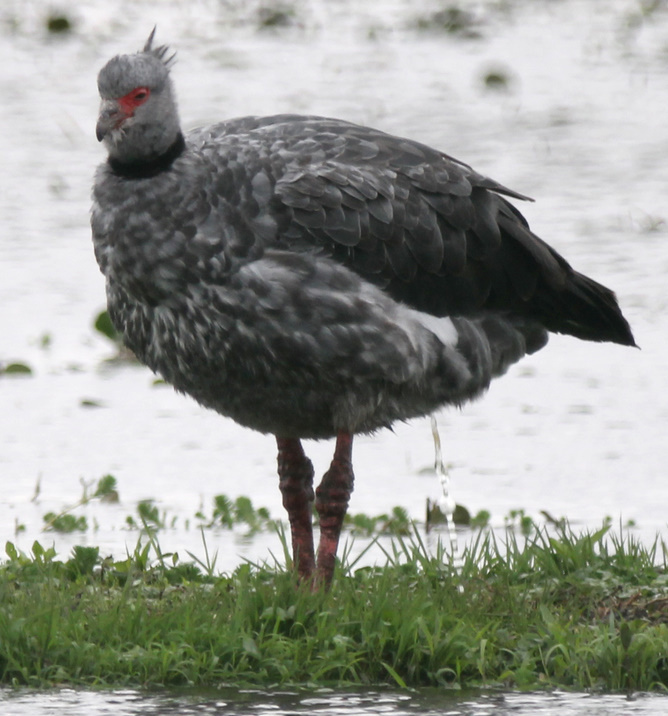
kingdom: Animalia
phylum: Chordata
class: Aves
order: Anseriformes
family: Anhimidae
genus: Chauna
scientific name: Chauna torquata
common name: Southern screamer
